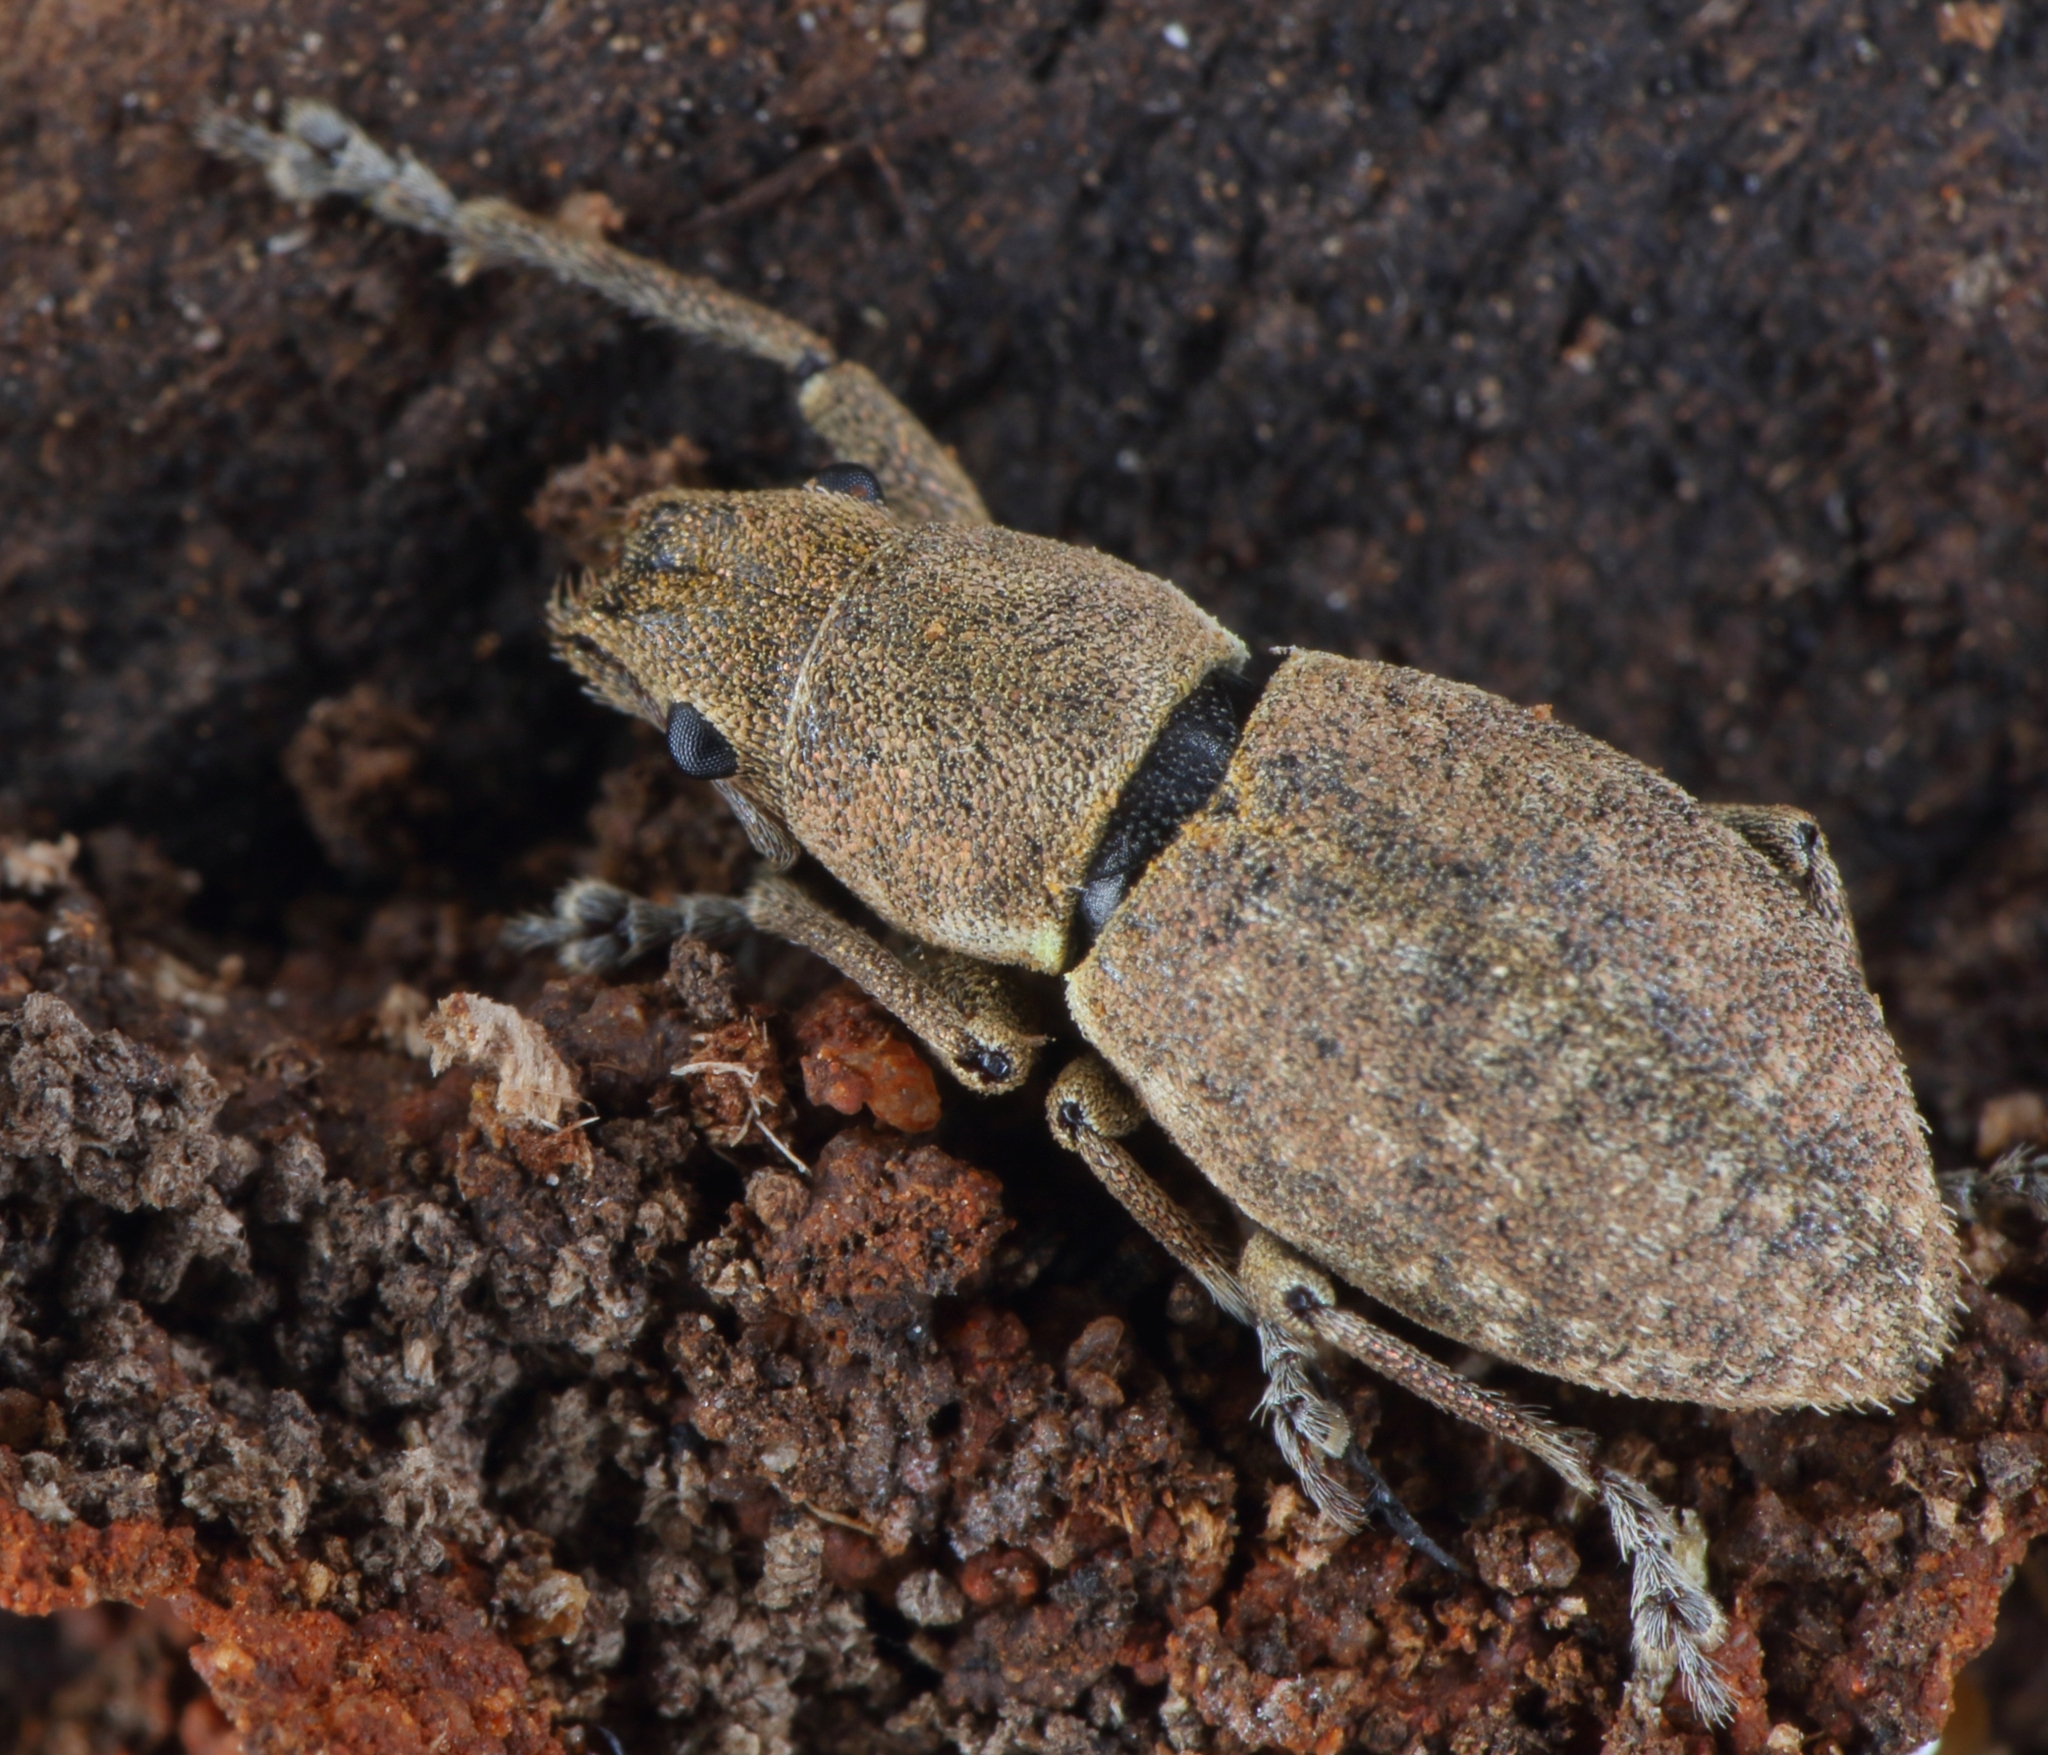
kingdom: Animalia
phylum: Arthropoda
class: Insecta
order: Coleoptera
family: Curculionidae
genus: Naupactus
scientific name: Naupactus cervinus
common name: Fuller rose beetle
